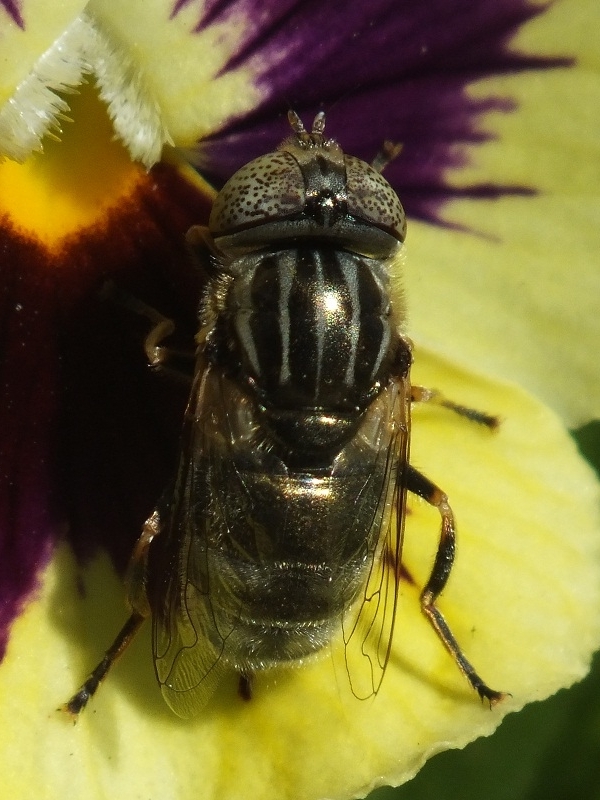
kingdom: Animalia
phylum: Arthropoda
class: Insecta
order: Diptera
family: Syrphidae
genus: Eristalinus
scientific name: Eristalinus aeneus
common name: Syrphid fly
